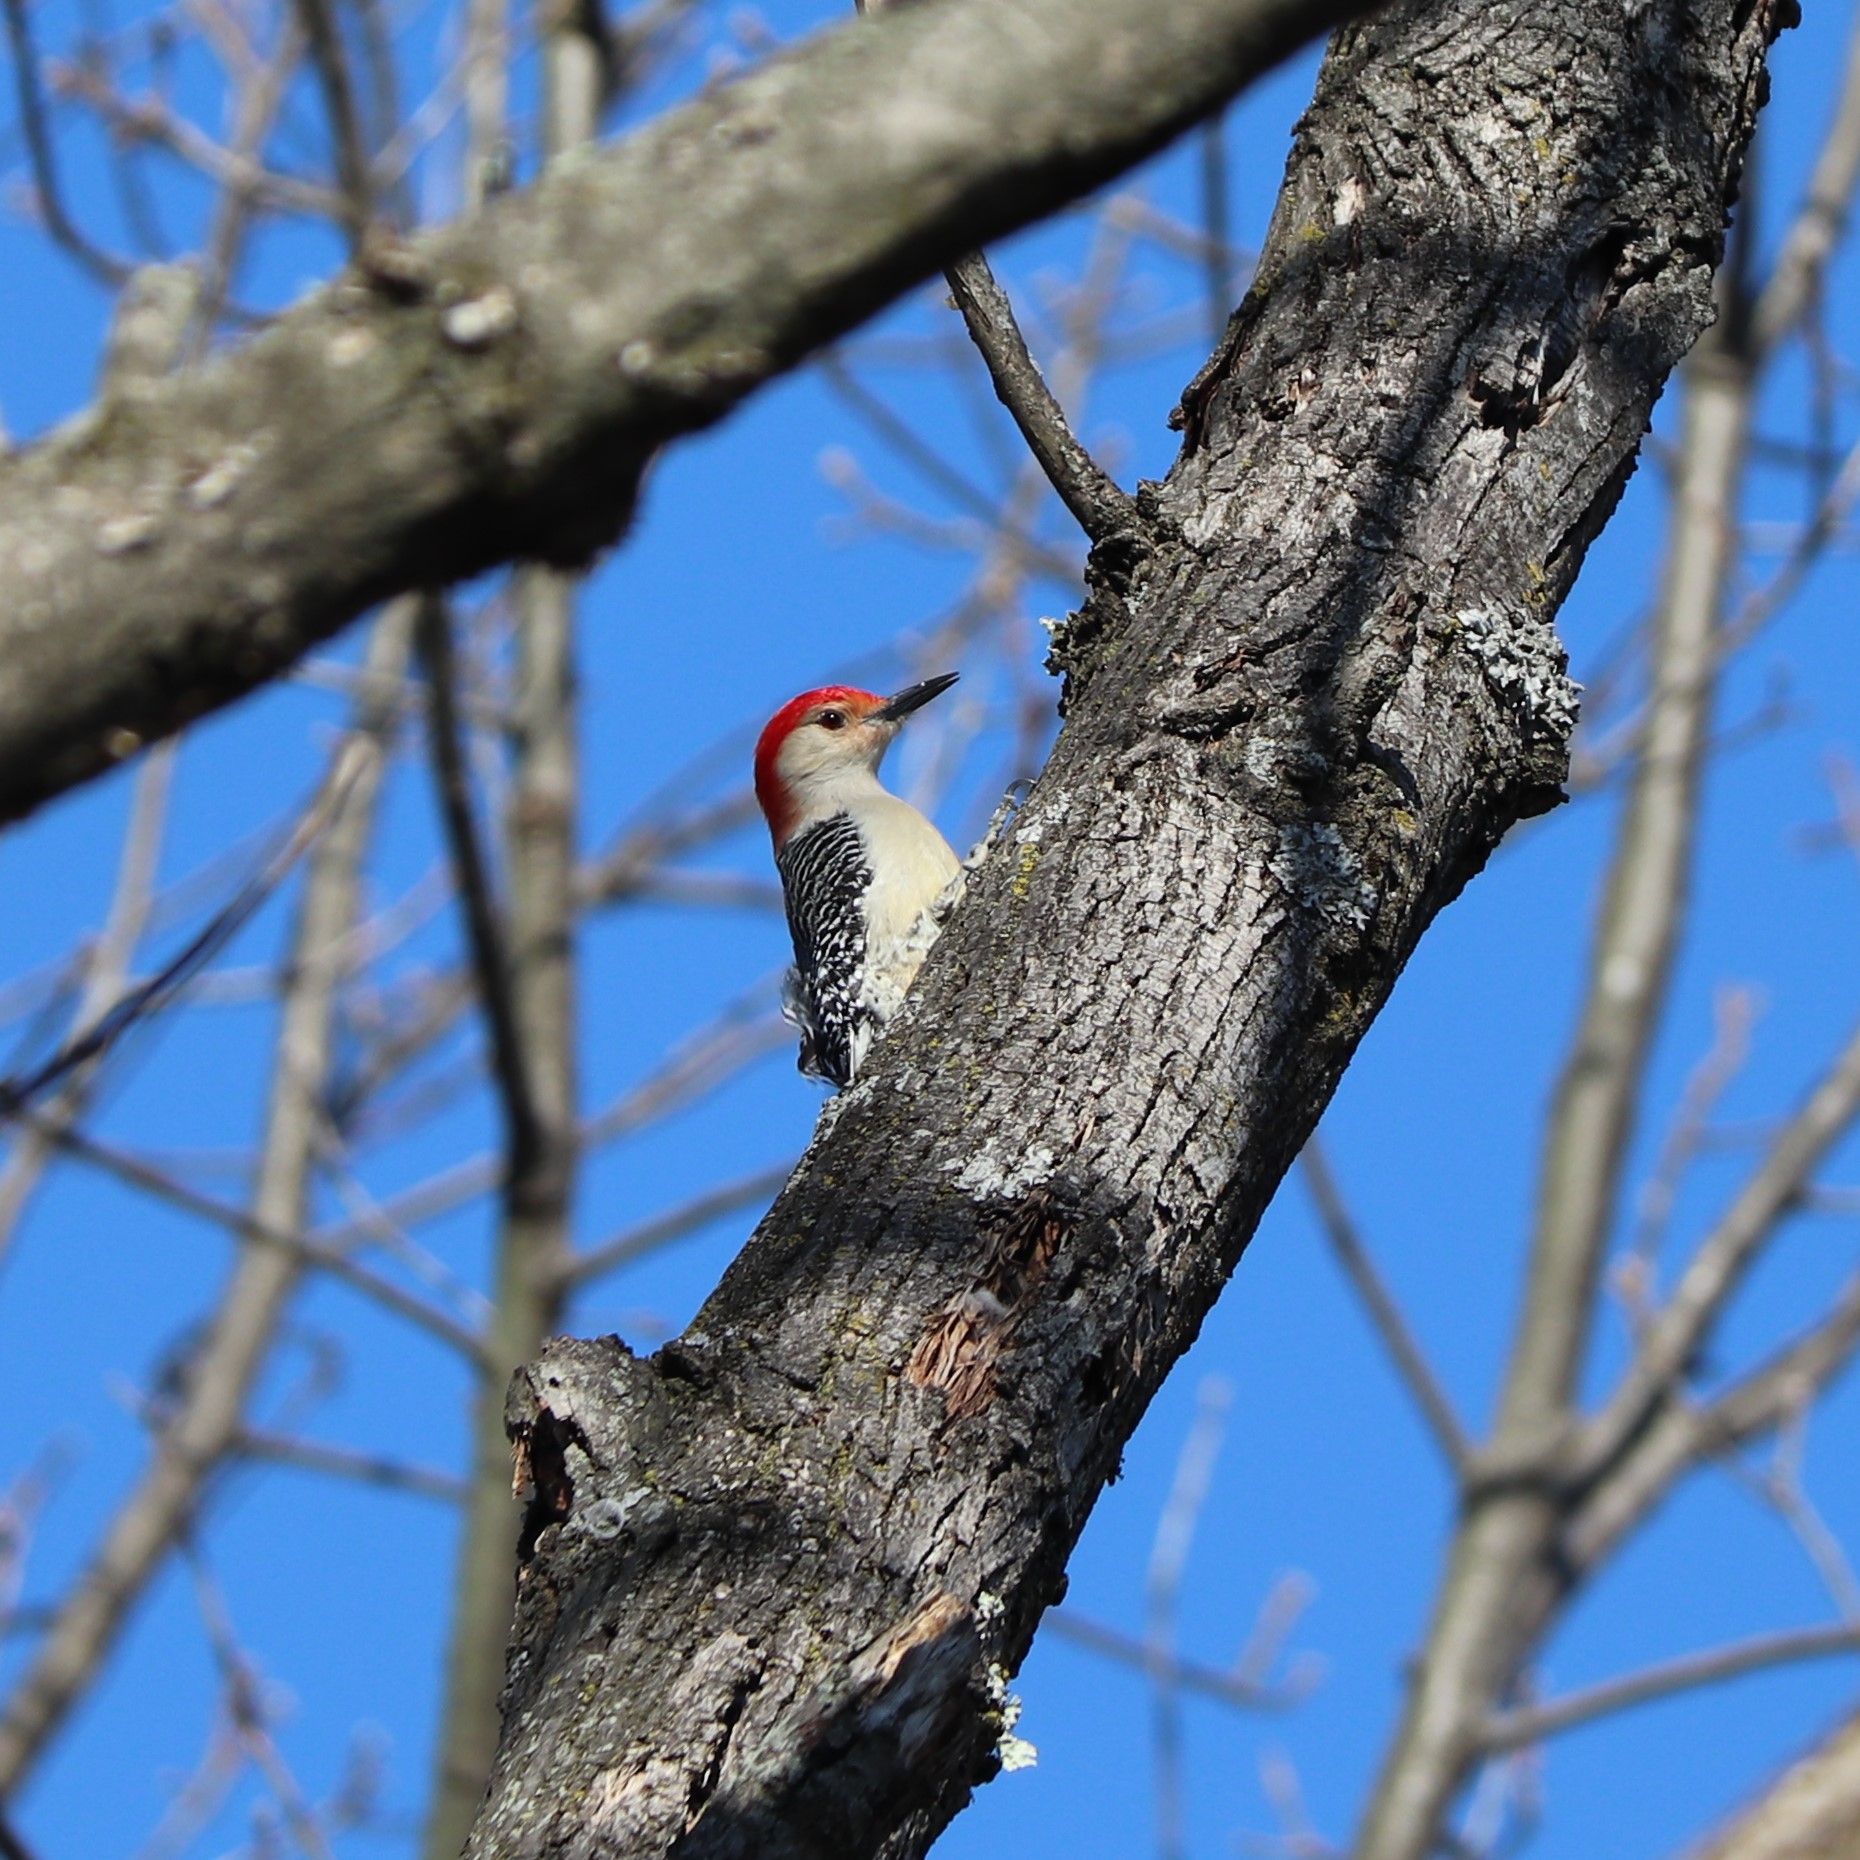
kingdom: Animalia
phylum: Chordata
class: Aves
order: Piciformes
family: Picidae
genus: Melanerpes
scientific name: Melanerpes carolinus
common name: Red-bellied woodpecker
